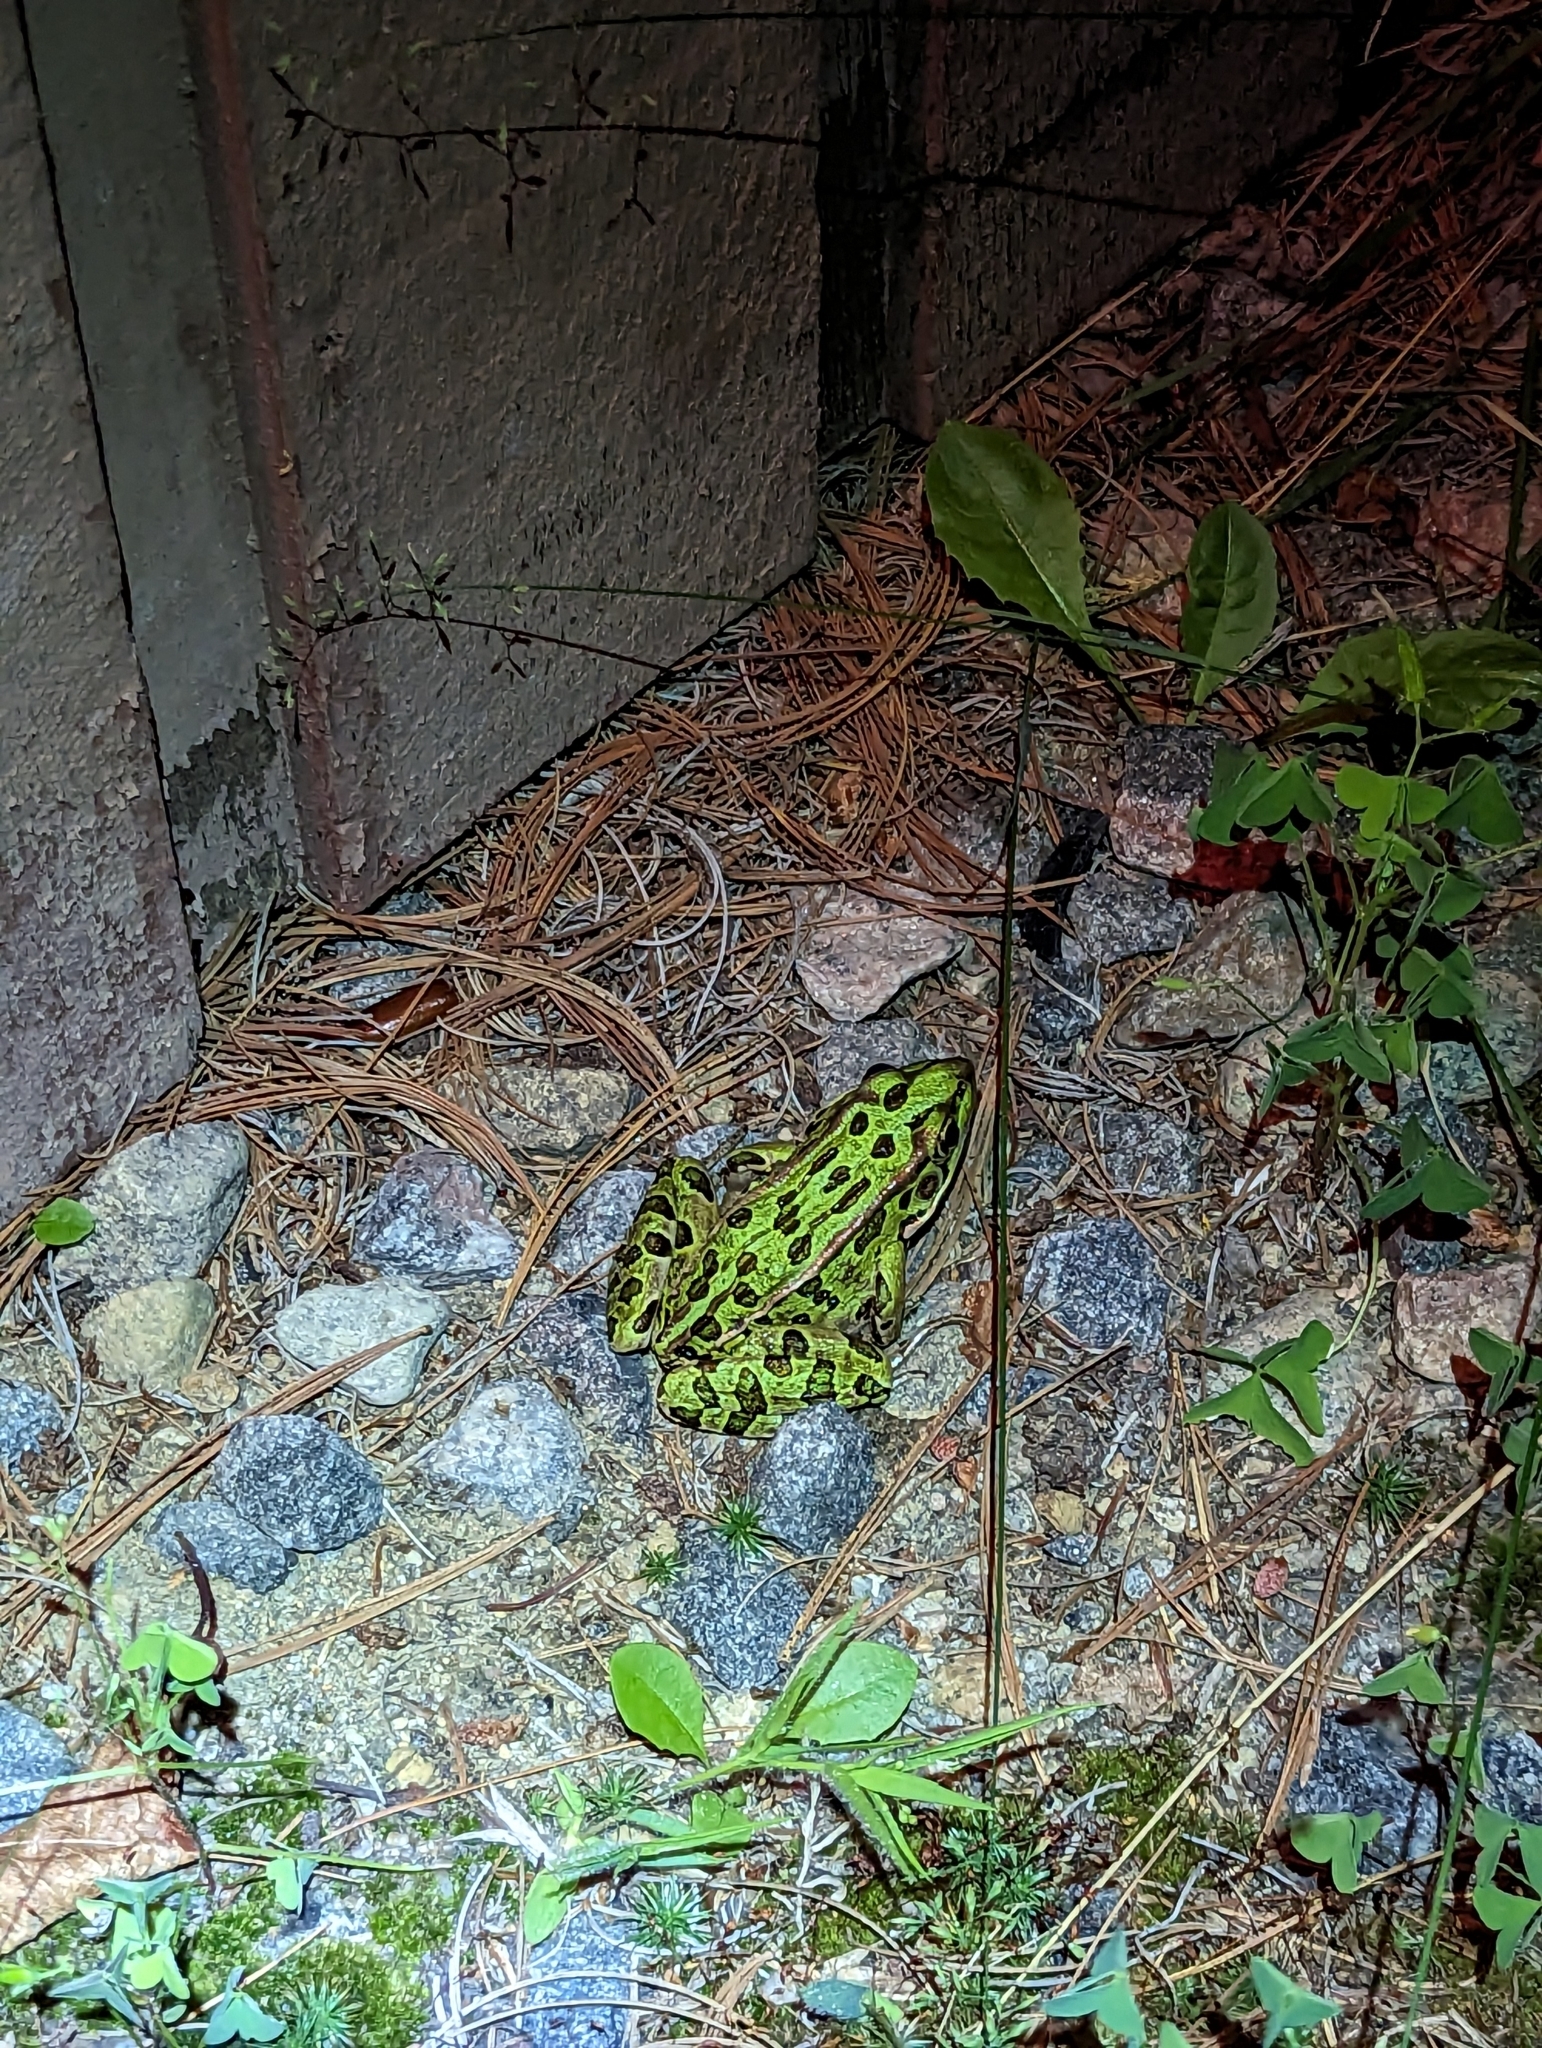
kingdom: Animalia
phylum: Chordata
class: Amphibia
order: Anura
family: Ranidae
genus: Lithobates
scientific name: Lithobates pipiens
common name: Northern leopard frog
